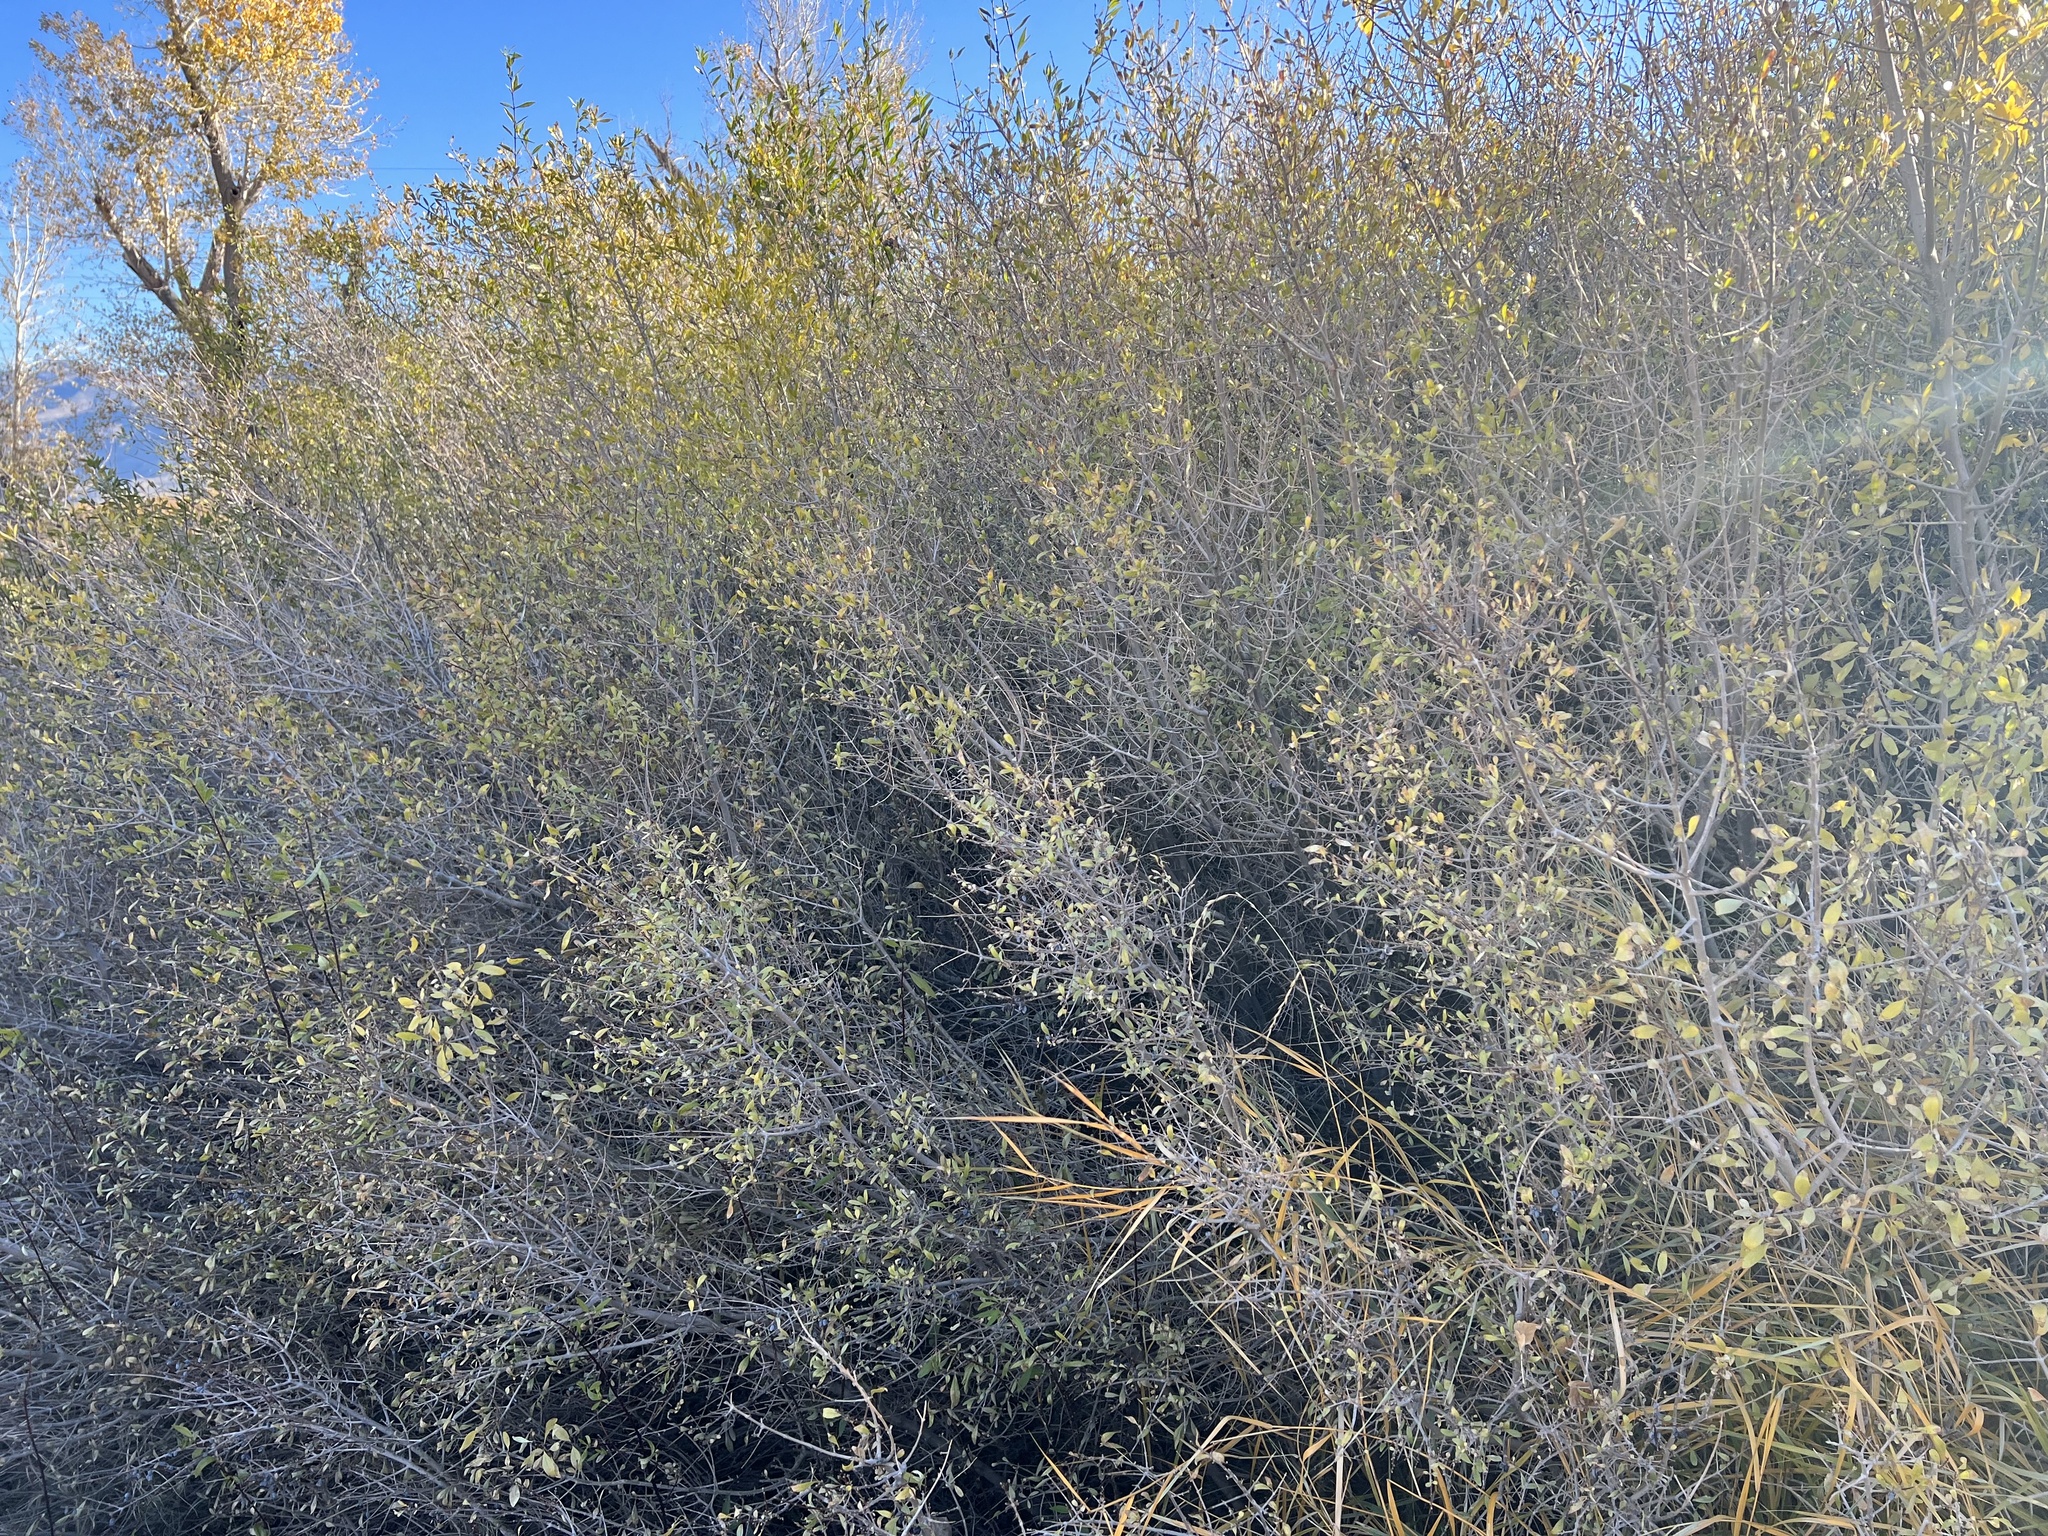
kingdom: Plantae
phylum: Tracheophyta
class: Magnoliopsida
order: Lamiales
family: Oleaceae
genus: Forestiera
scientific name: Forestiera pubescens
